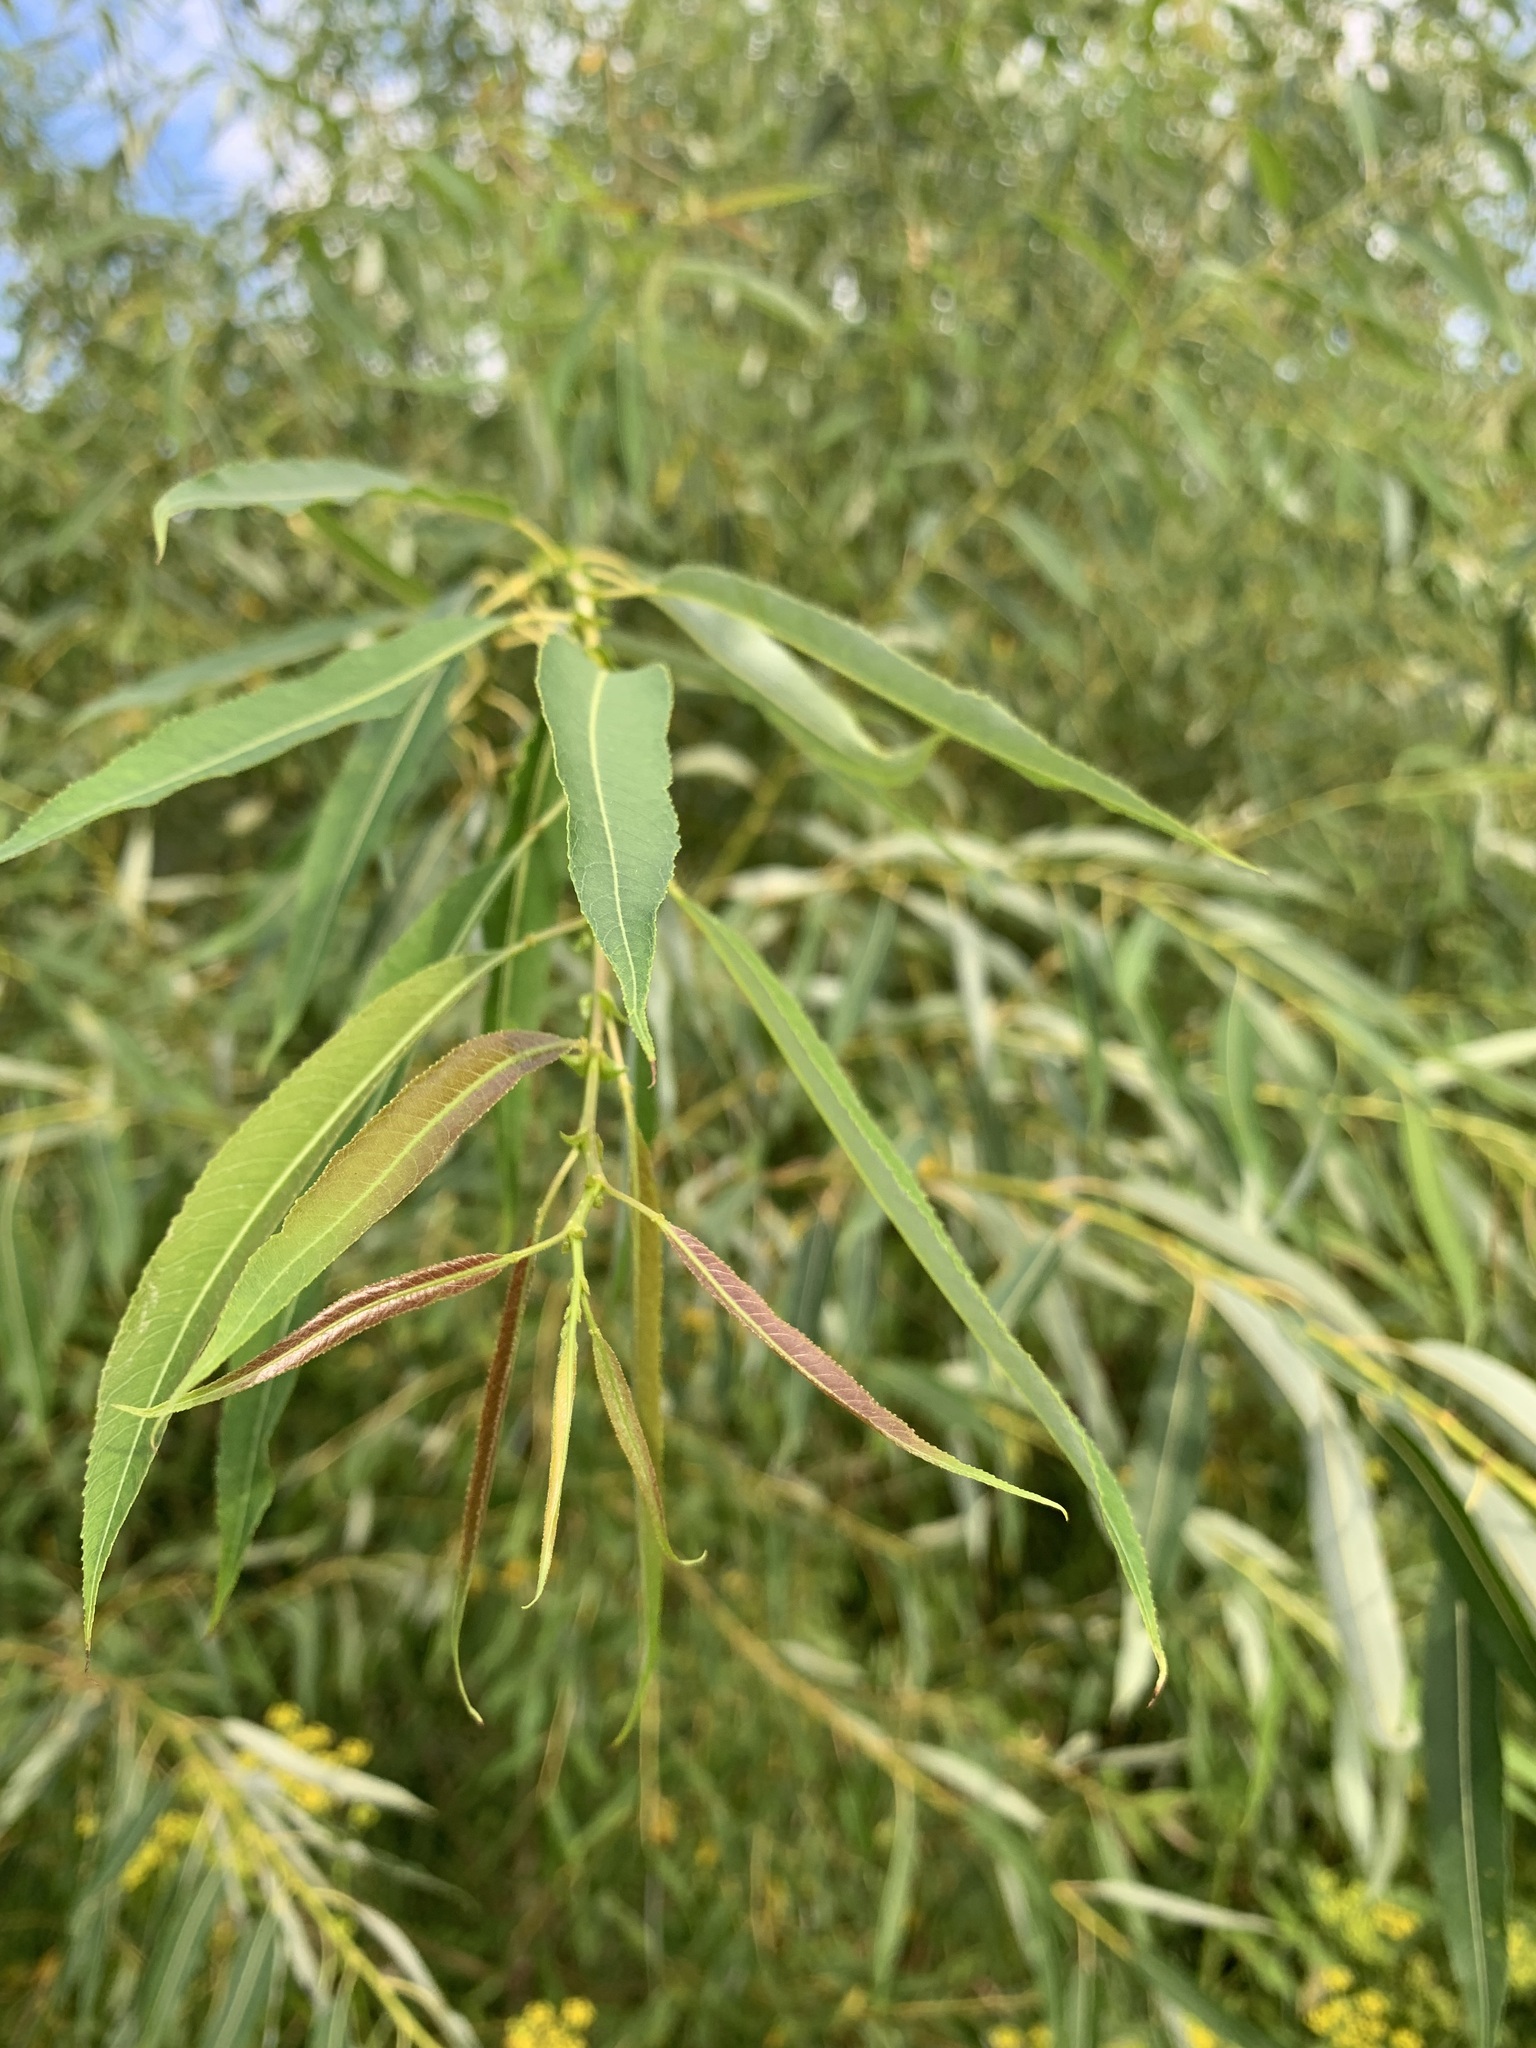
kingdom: Plantae
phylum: Tracheophyta
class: Magnoliopsida
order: Malpighiales
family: Salicaceae
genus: Salix
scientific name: Salix triandra
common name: Almond willow
